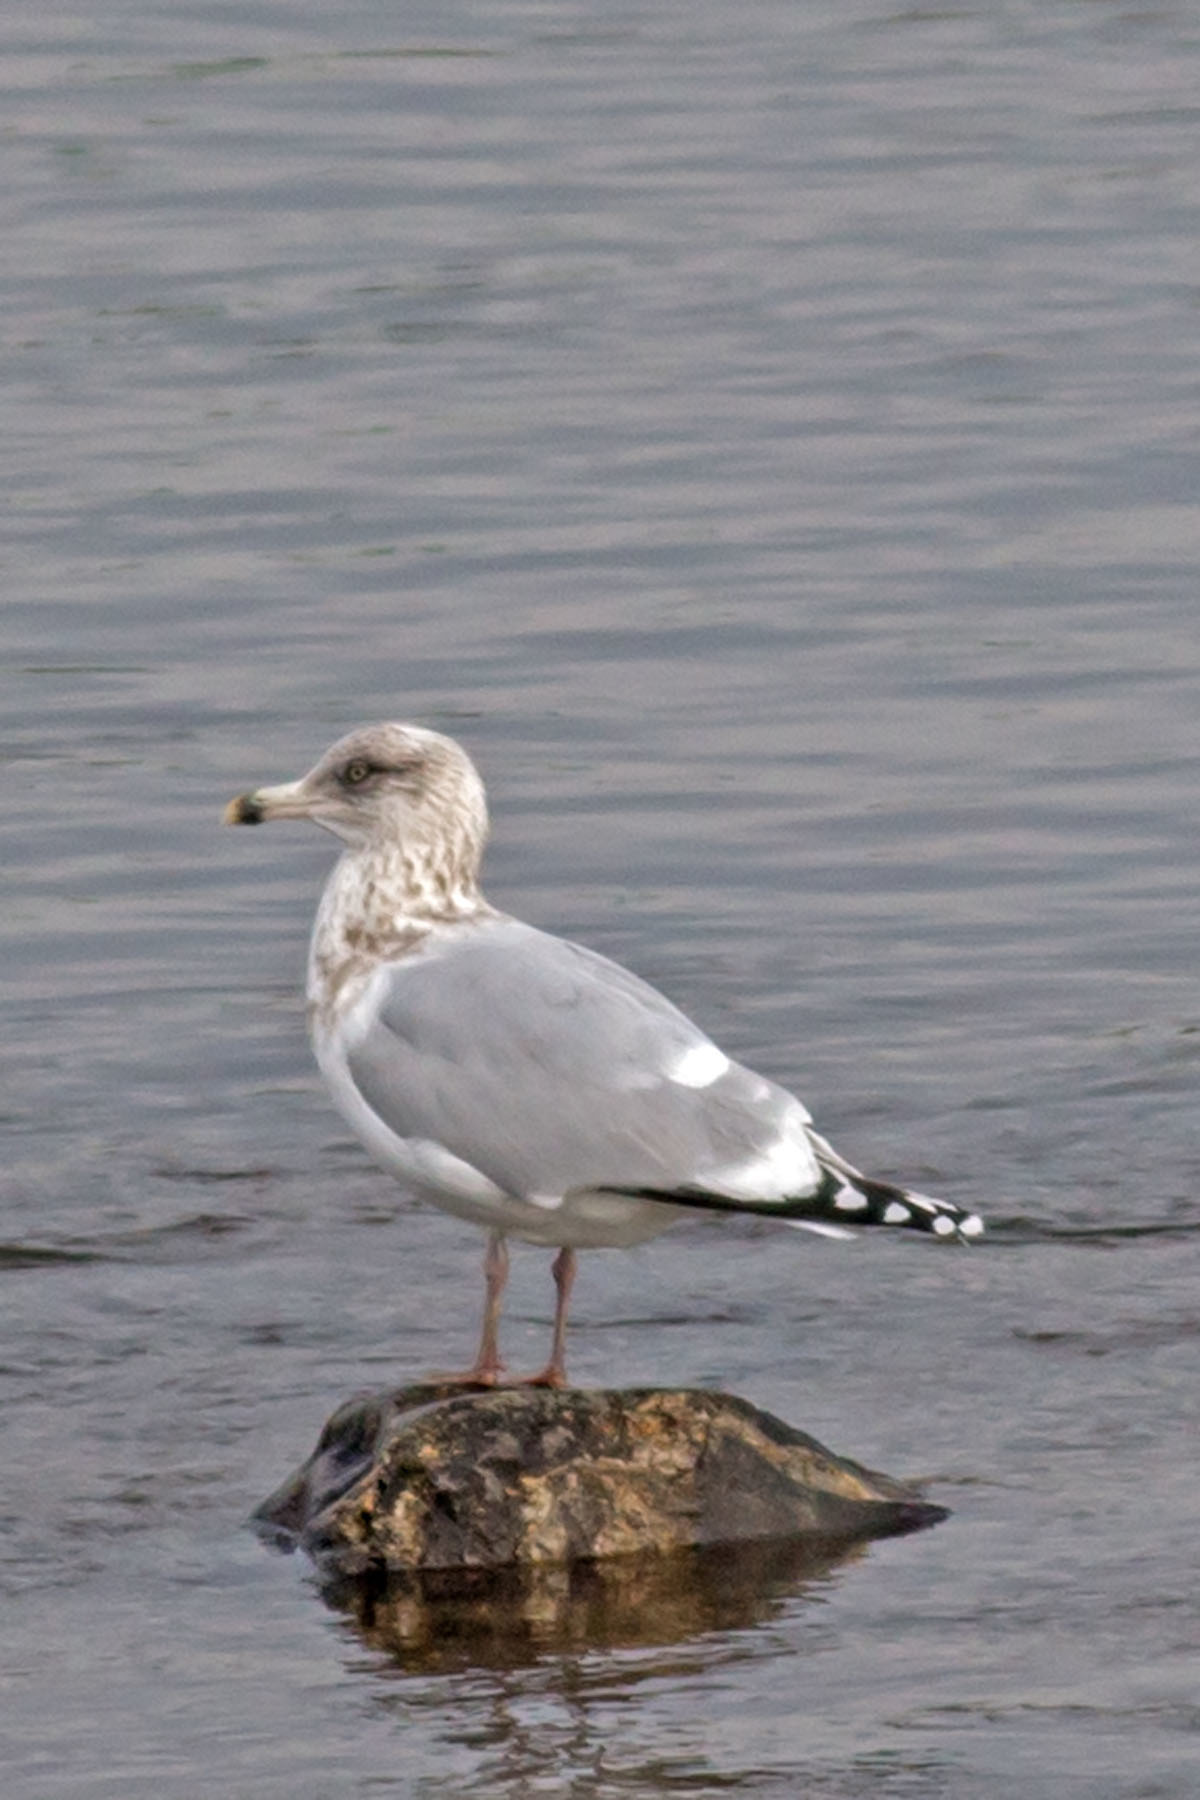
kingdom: Animalia
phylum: Chordata
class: Aves
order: Charadriiformes
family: Laridae
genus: Larus
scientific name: Larus argentatus
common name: Herring gull
